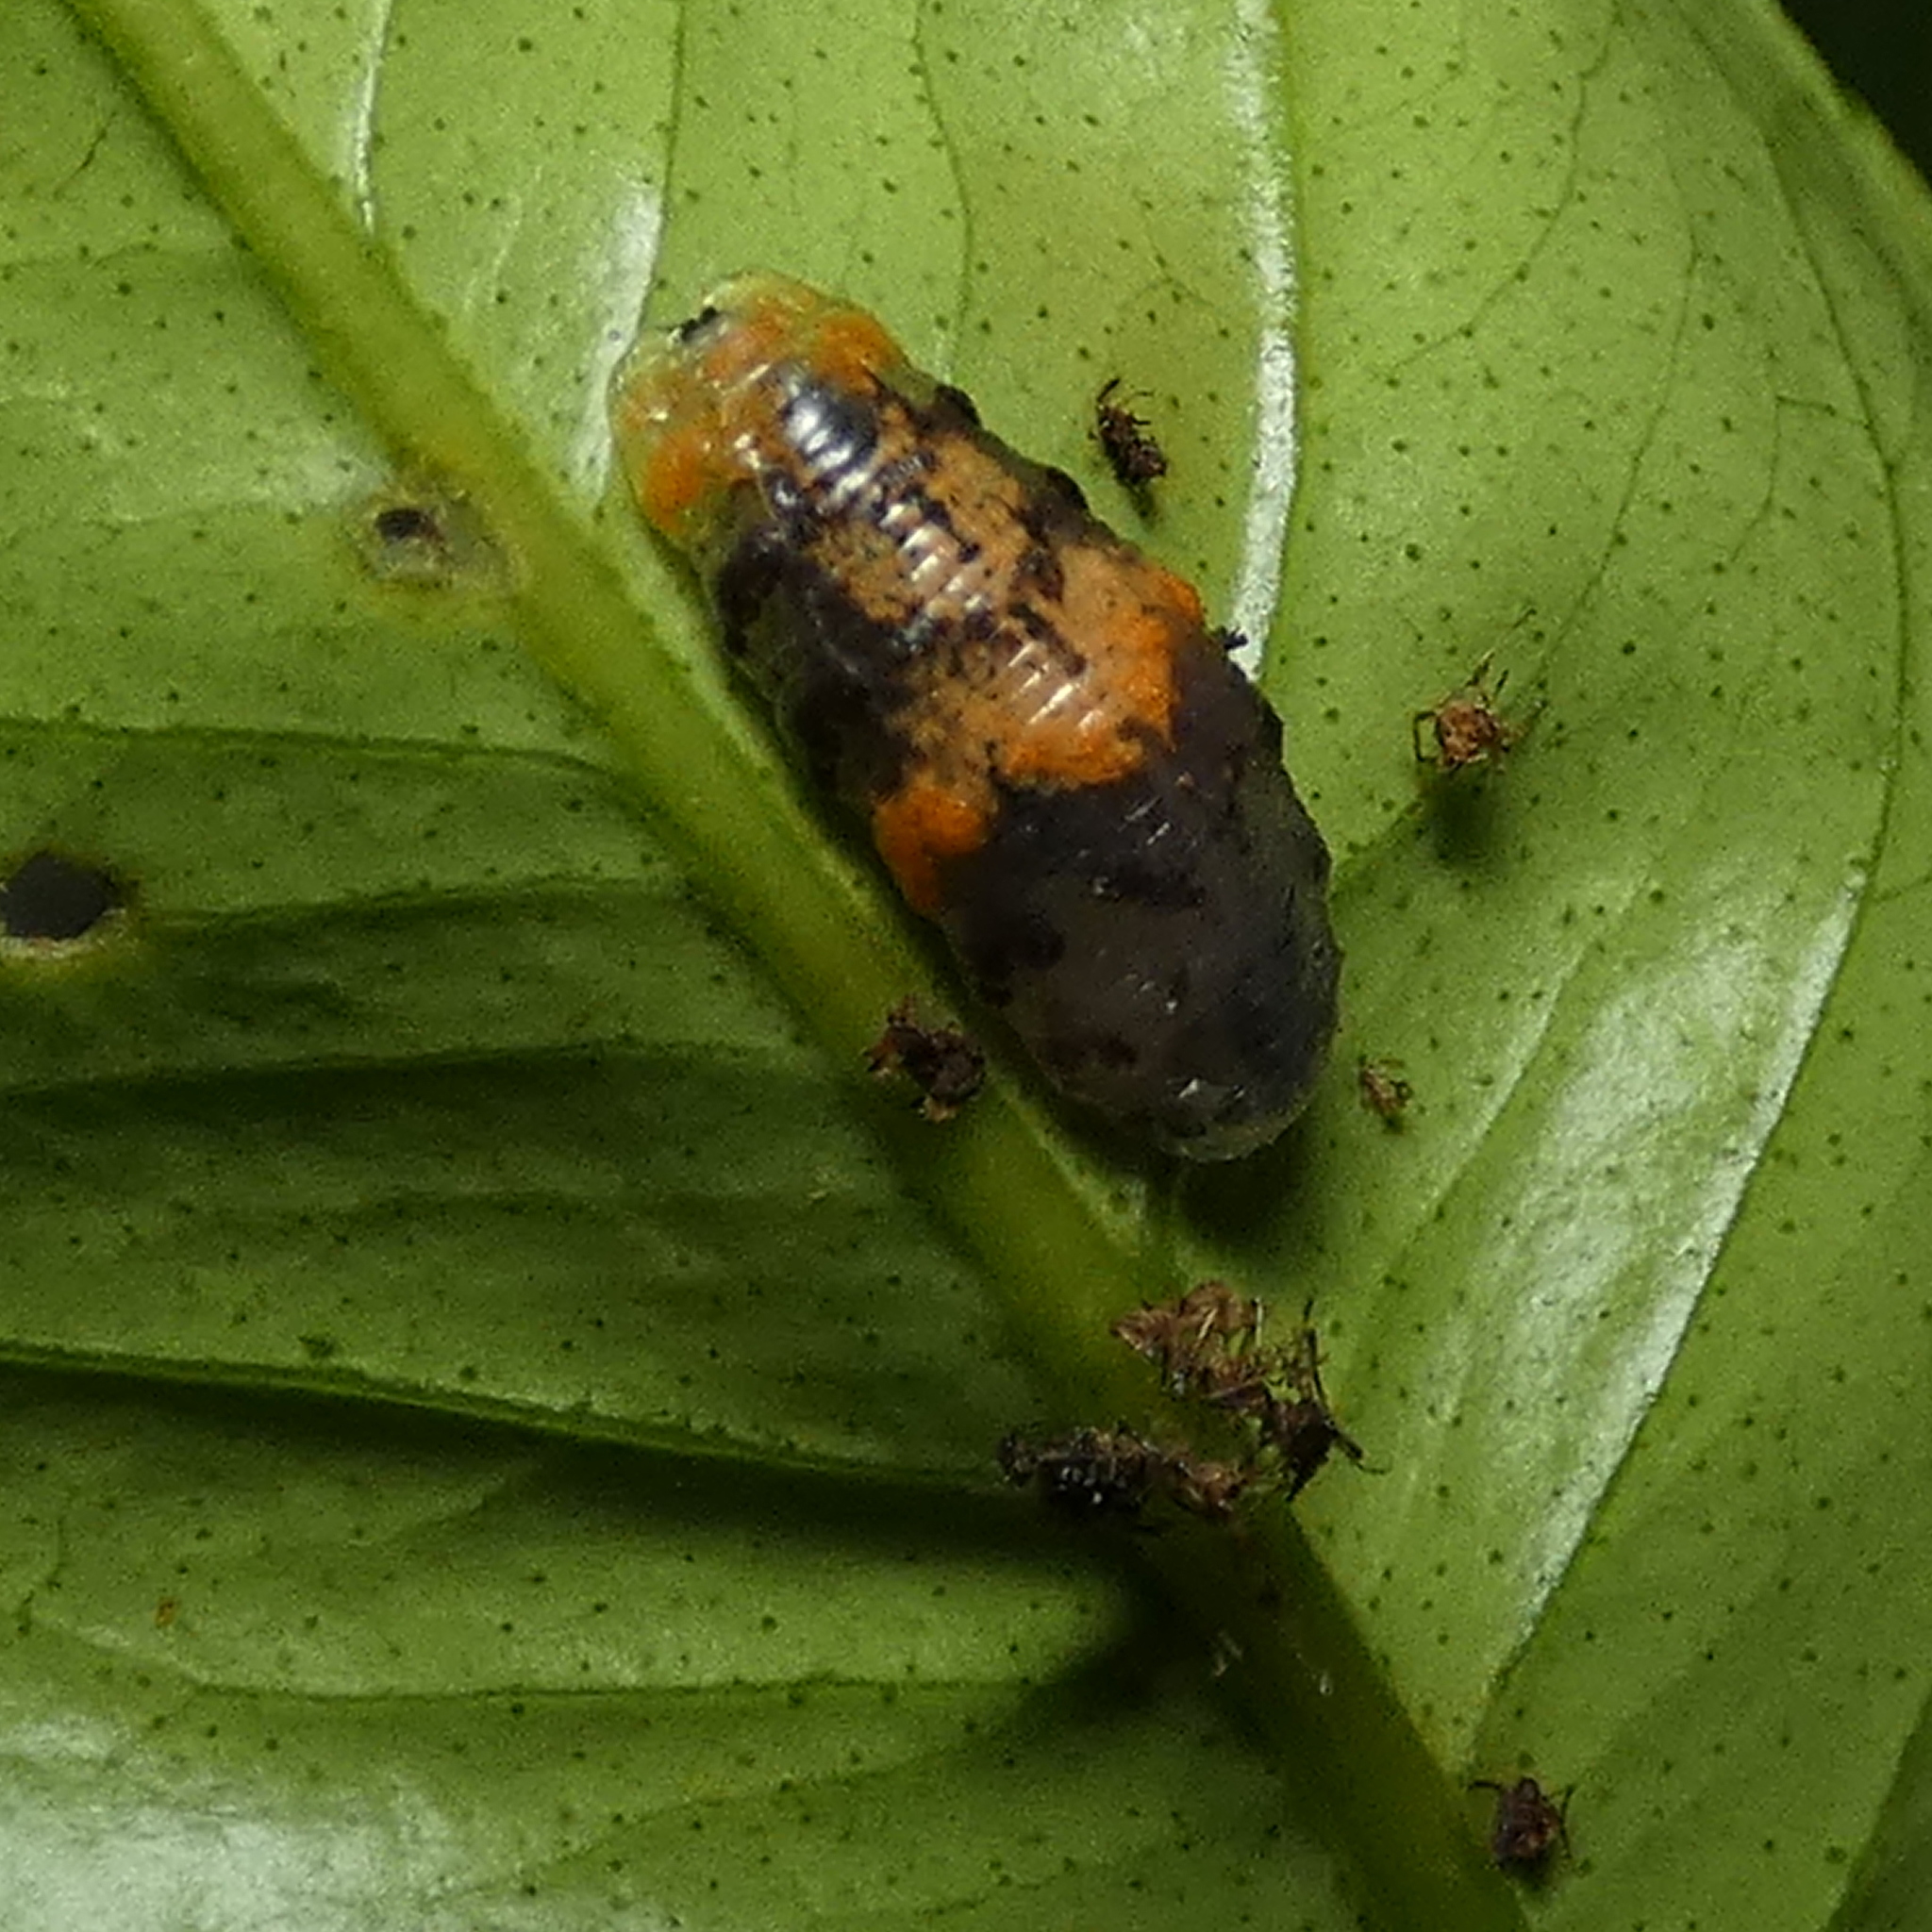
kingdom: Animalia
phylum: Arthropoda
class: Insecta
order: Diptera
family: Syrphidae
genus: Ocyptamus
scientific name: Ocyptamus gastrostactus
